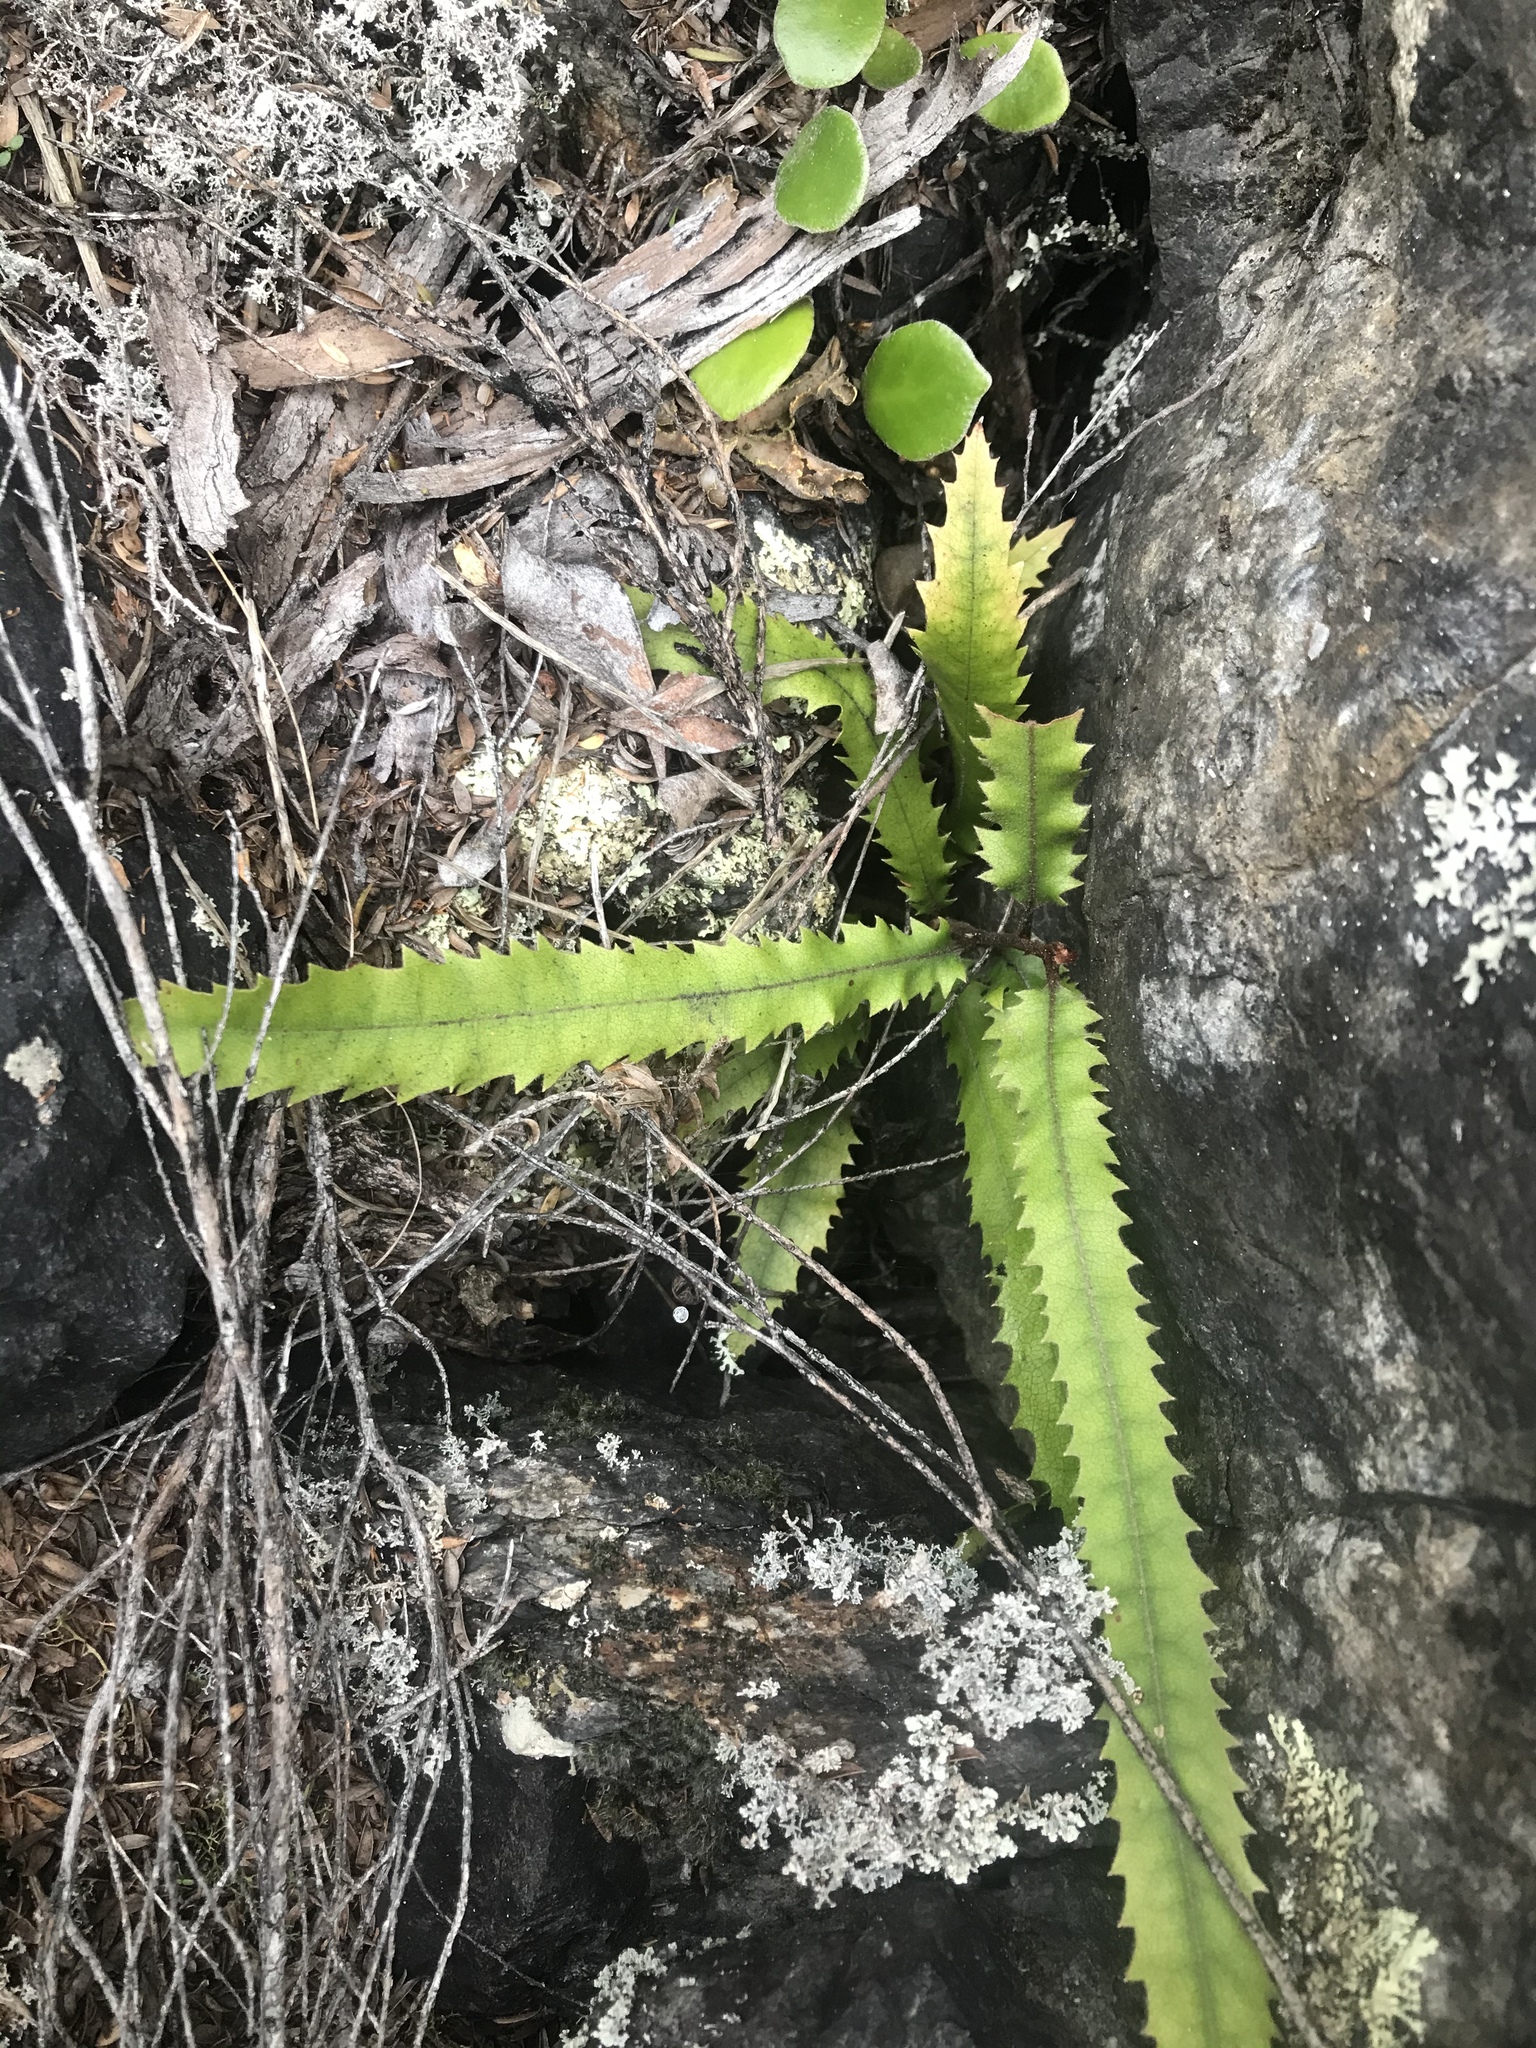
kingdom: Plantae
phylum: Tracheophyta
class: Magnoliopsida
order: Proteales
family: Proteaceae
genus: Knightia
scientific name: Knightia excelsa
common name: New zealand-honeysuckle
